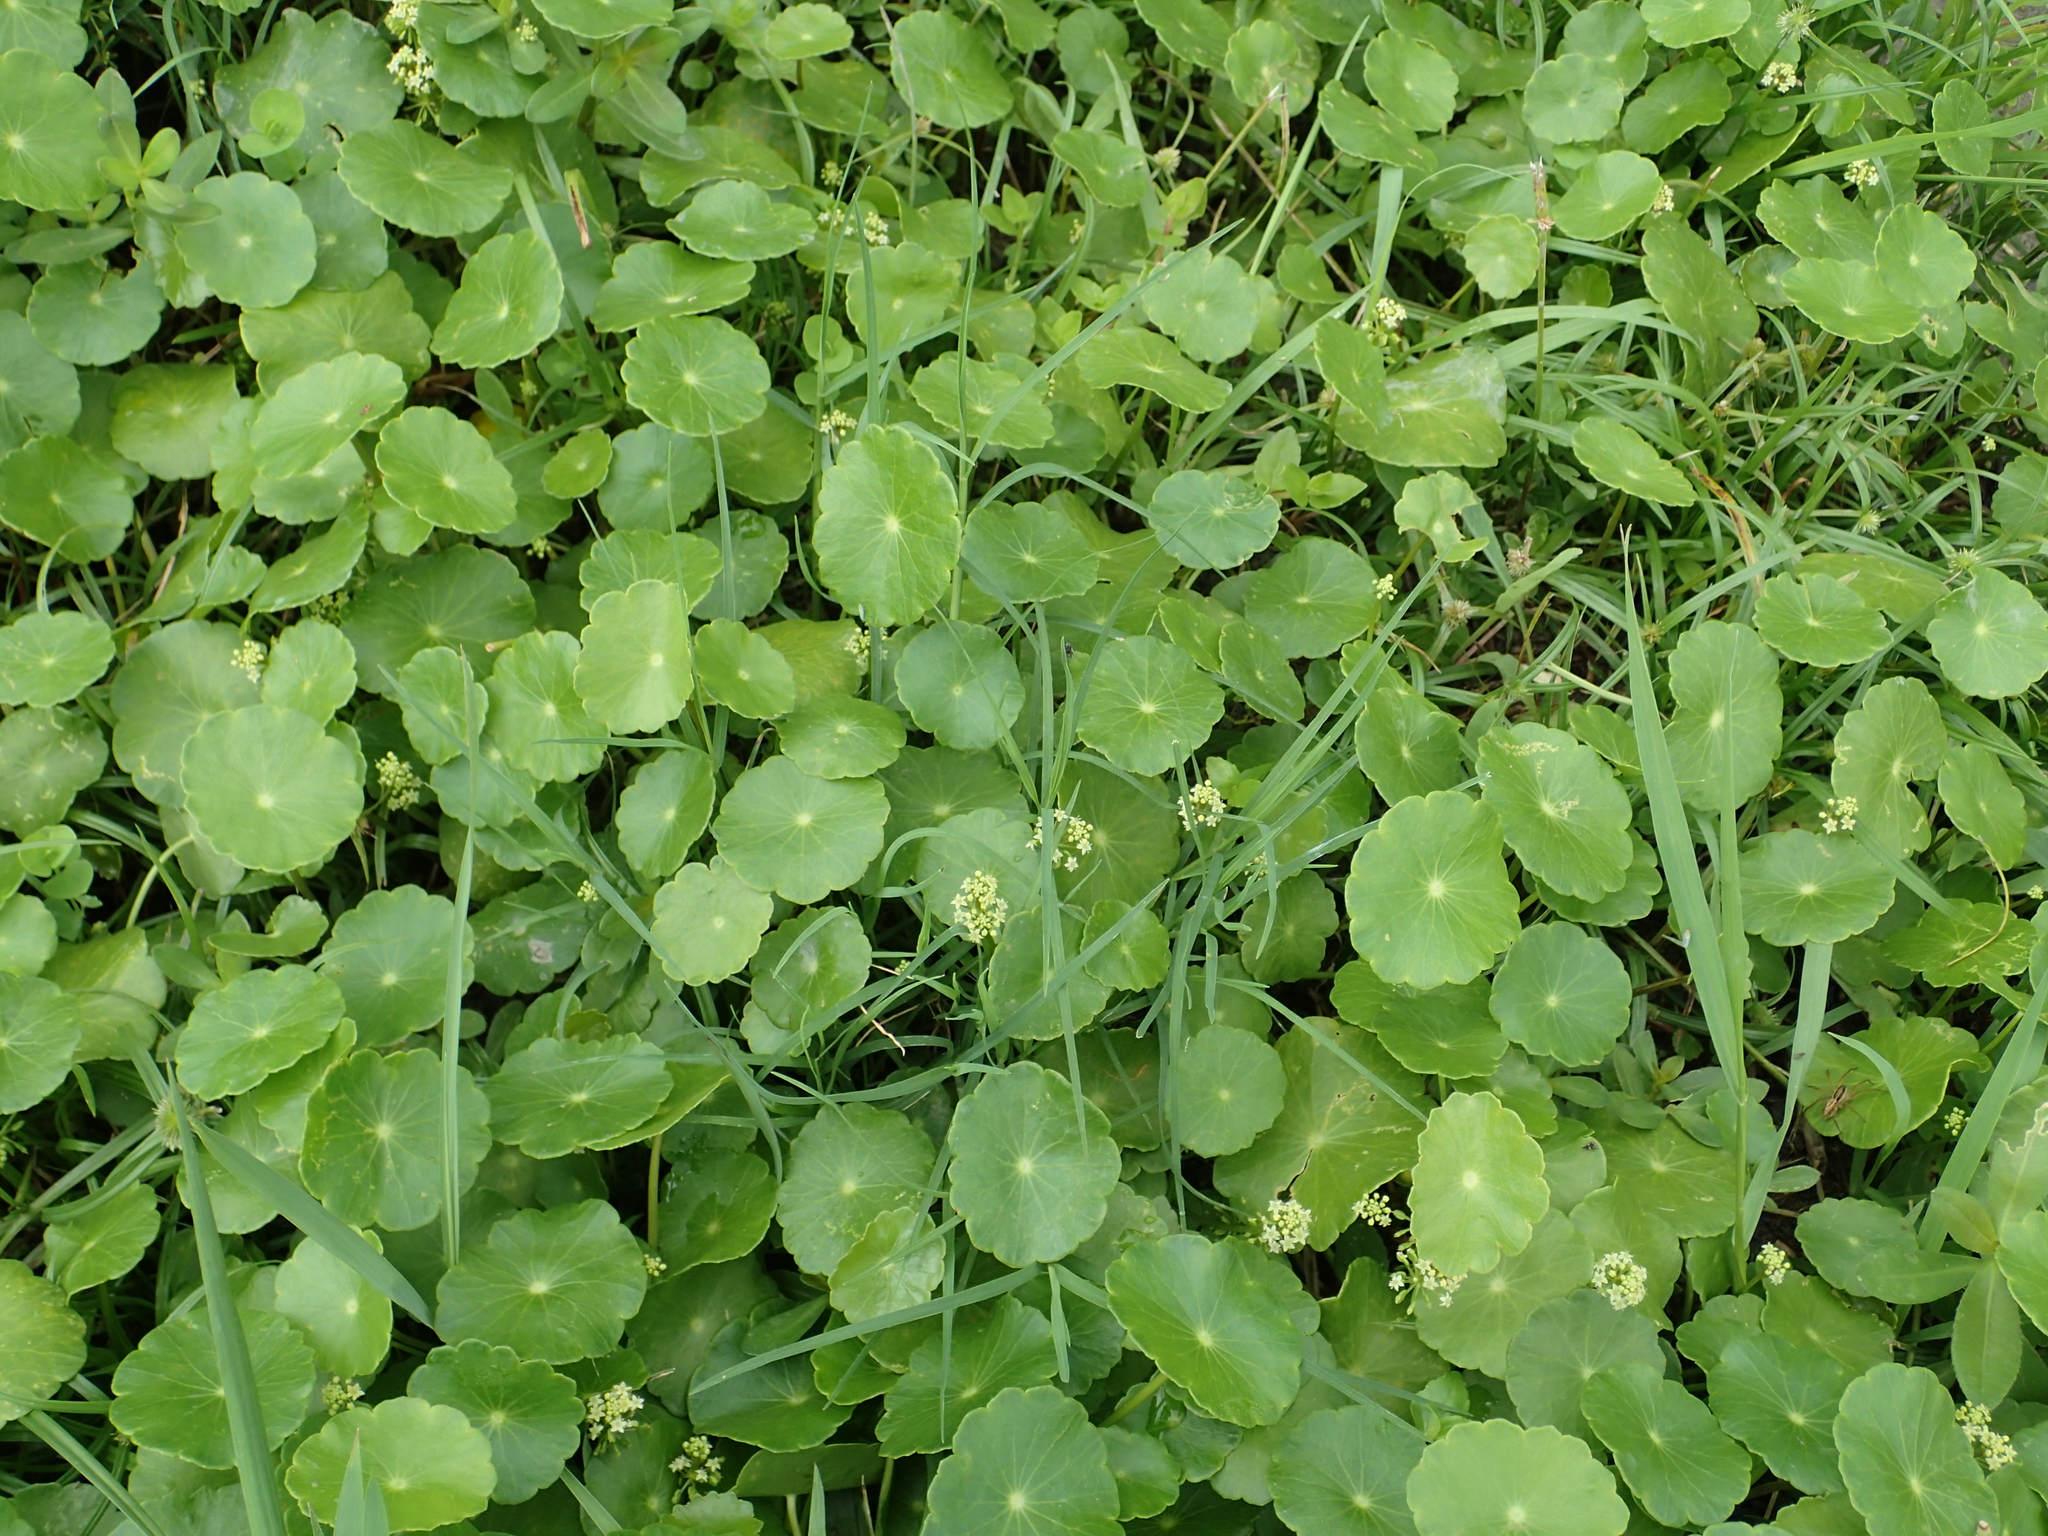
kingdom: Plantae
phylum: Tracheophyta
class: Magnoliopsida
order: Apiales
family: Araliaceae
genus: Hydrocotyle
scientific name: Hydrocotyle verticillata
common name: Whorled marshpennywort
